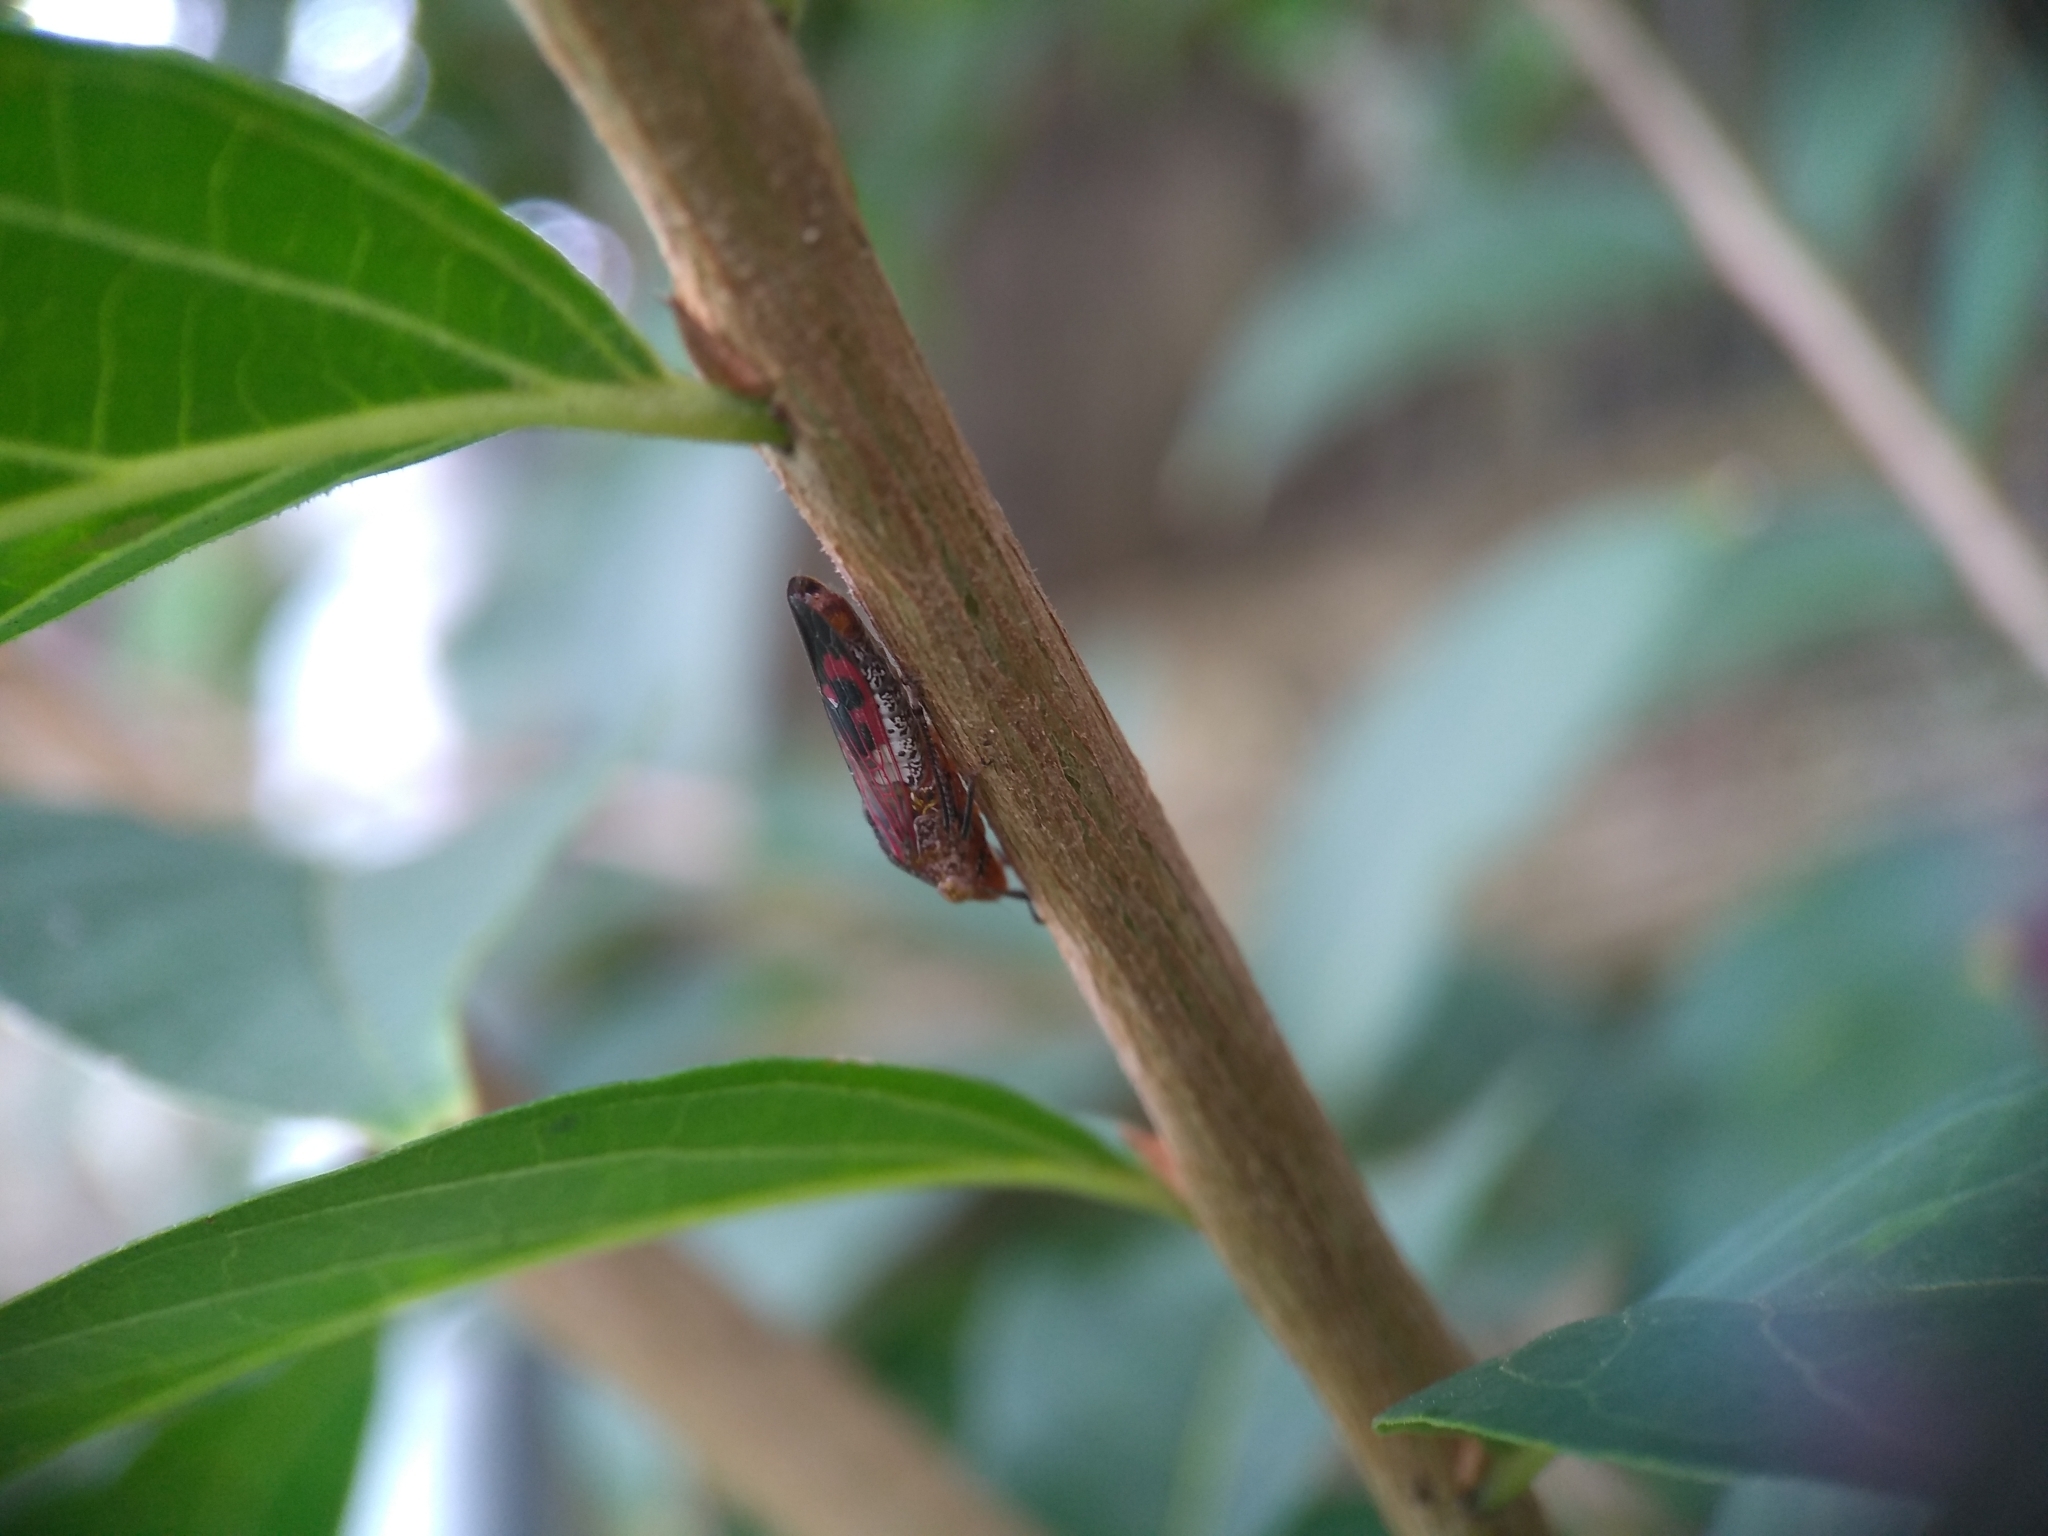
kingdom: Animalia
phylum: Arthropoda
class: Insecta
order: Hemiptera
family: Cicadellidae
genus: Homalodisca
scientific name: Homalodisca vitripennis
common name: Glassy-winged sharpshooter
